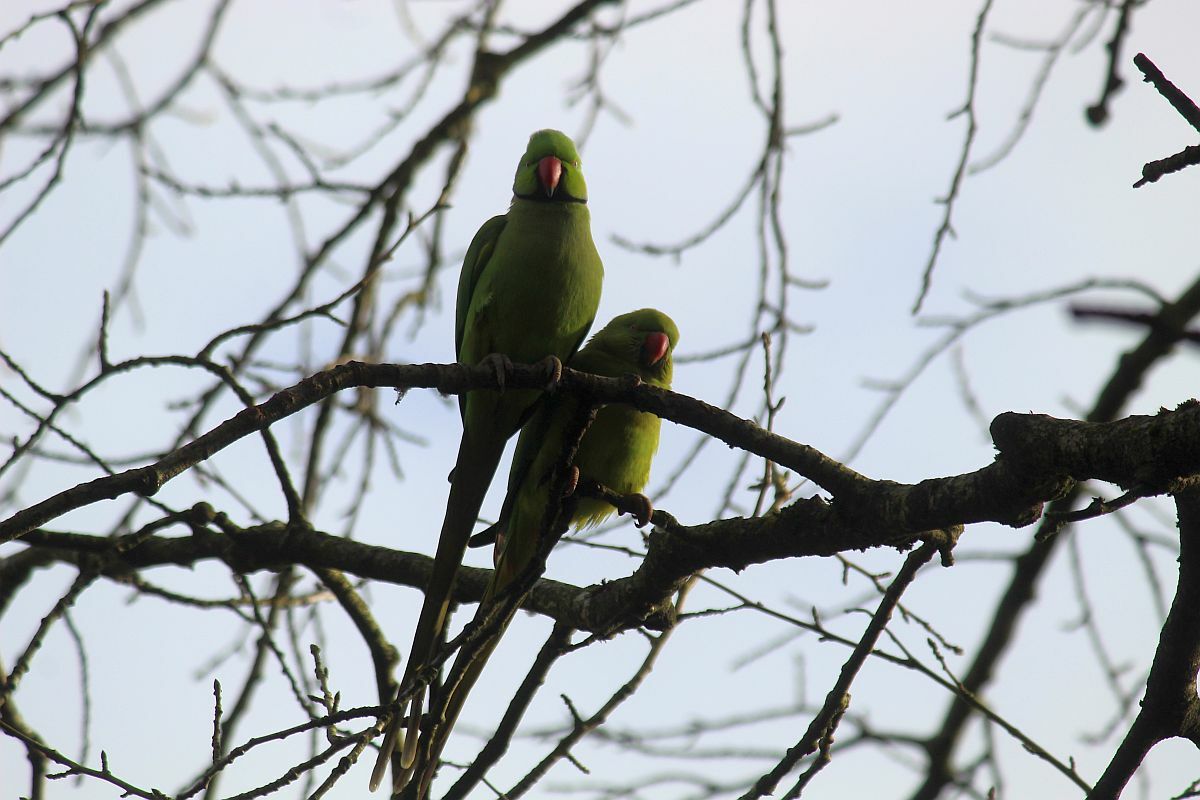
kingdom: Animalia
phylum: Chordata
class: Aves
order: Psittaciformes
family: Psittacidae
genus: Psittacula
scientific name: Psittacula krameri
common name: Rose-ringed parakeet
